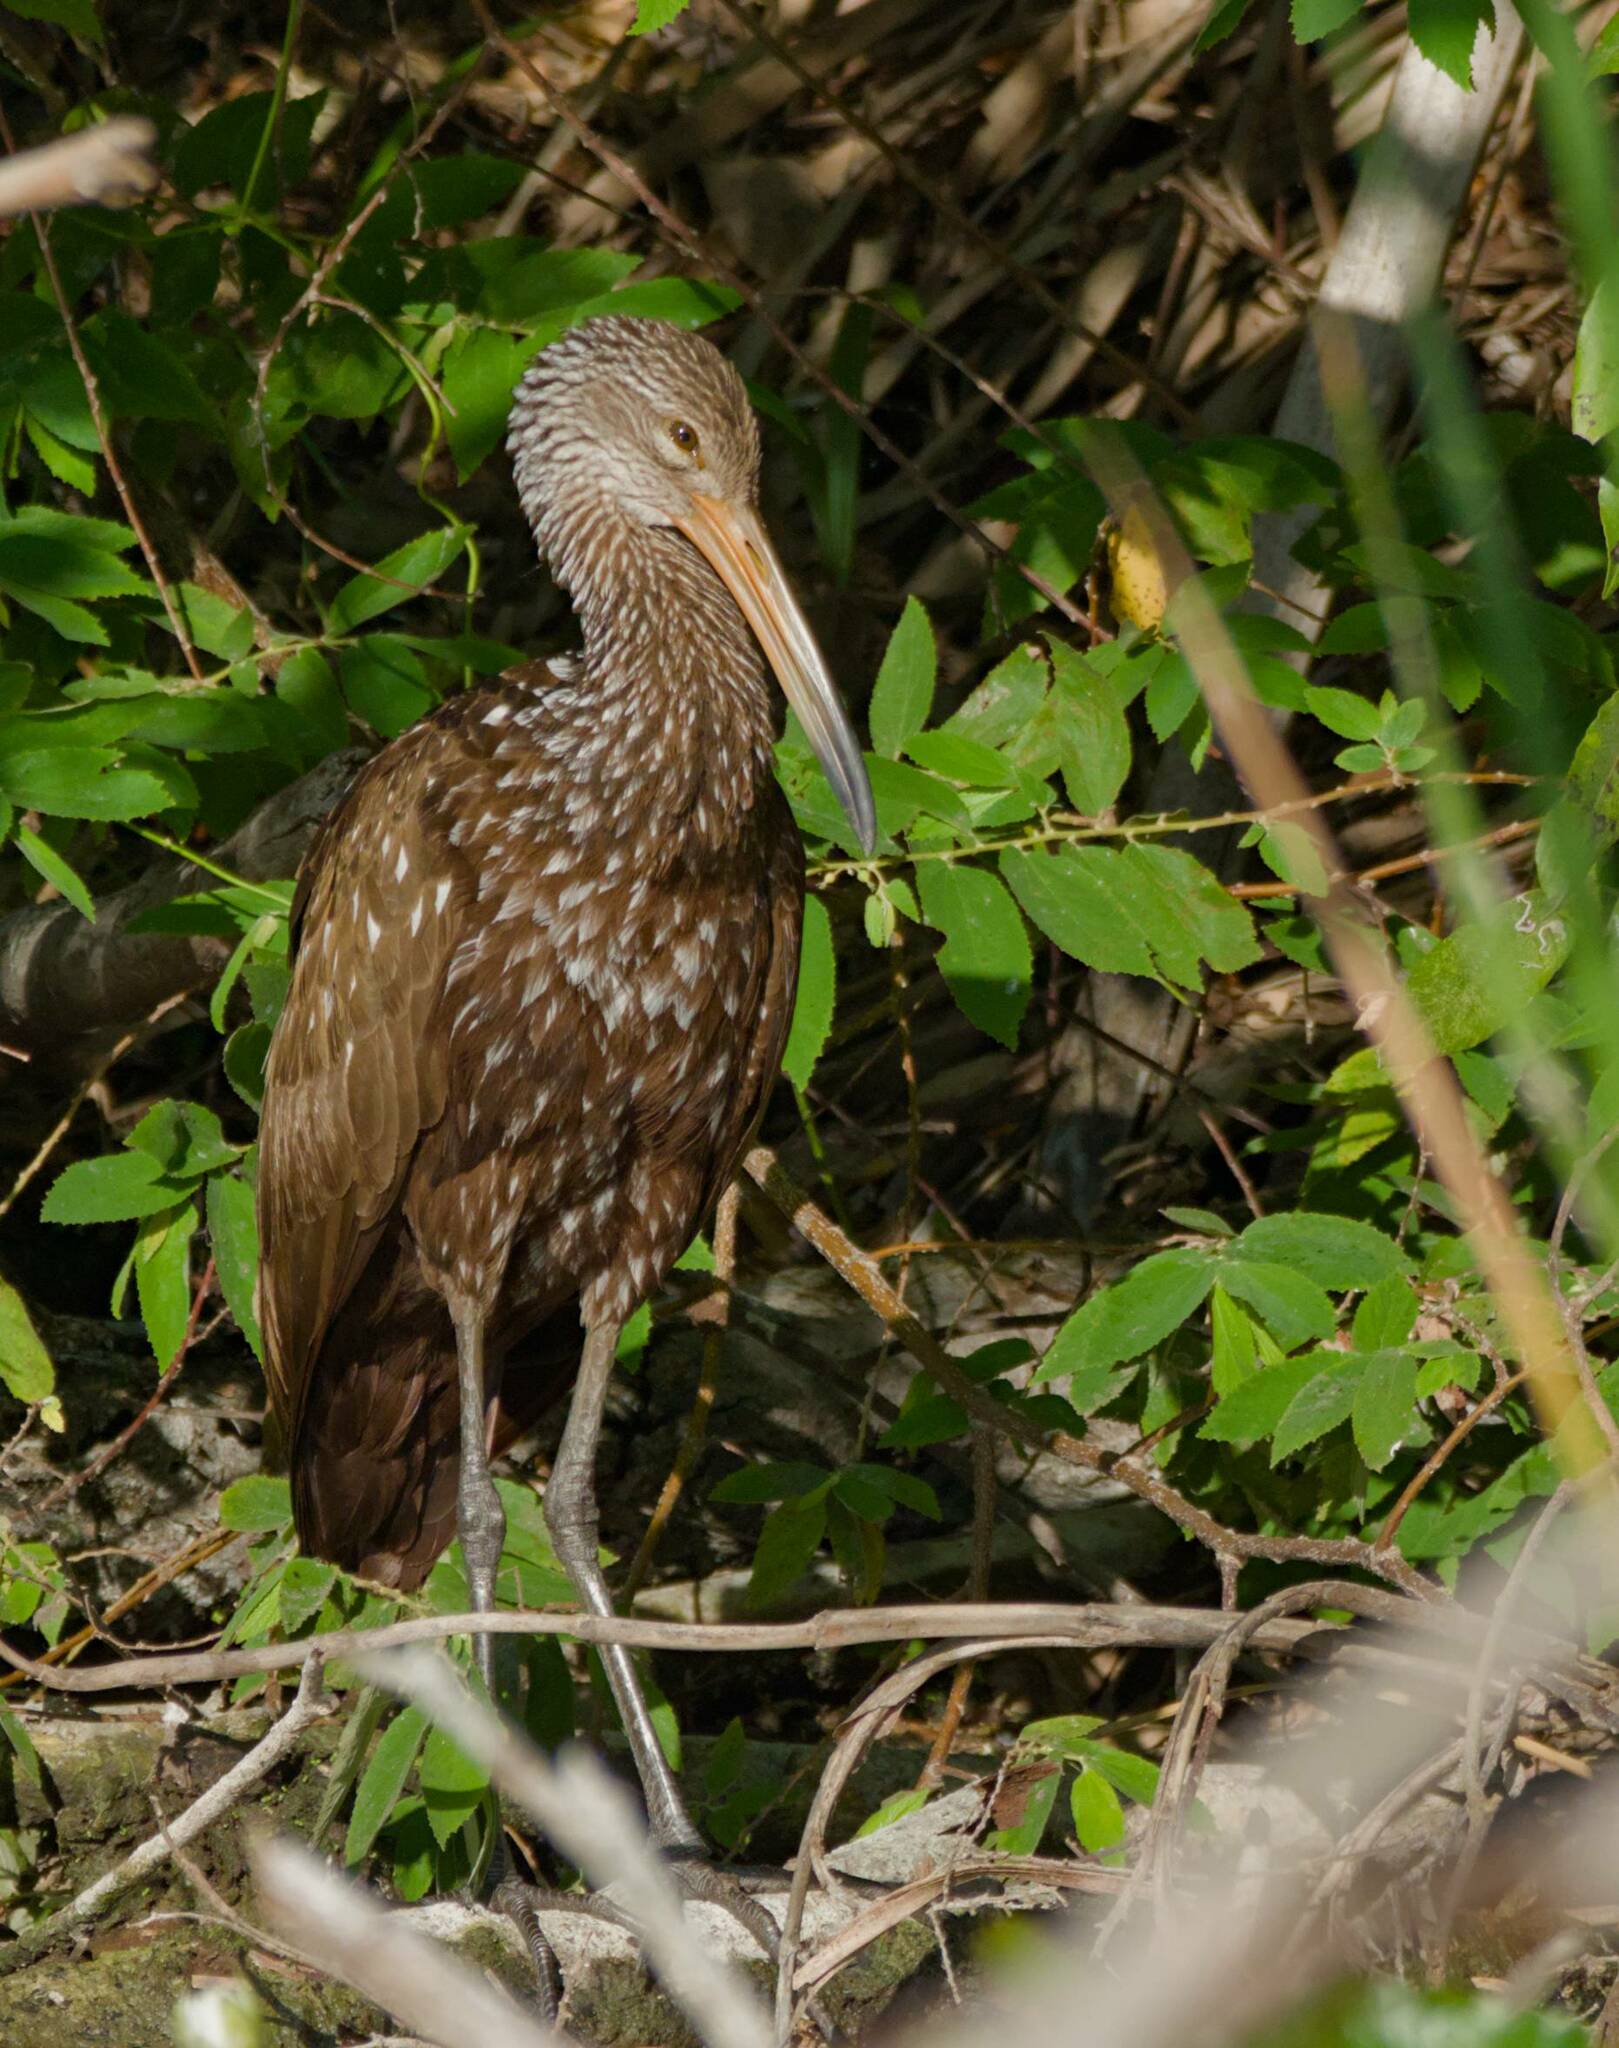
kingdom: Animalia
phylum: Chordata
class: Aves
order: Gruiformes
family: Aramidae
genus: Aramus
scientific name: Aramus guarauna
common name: Limpkin
